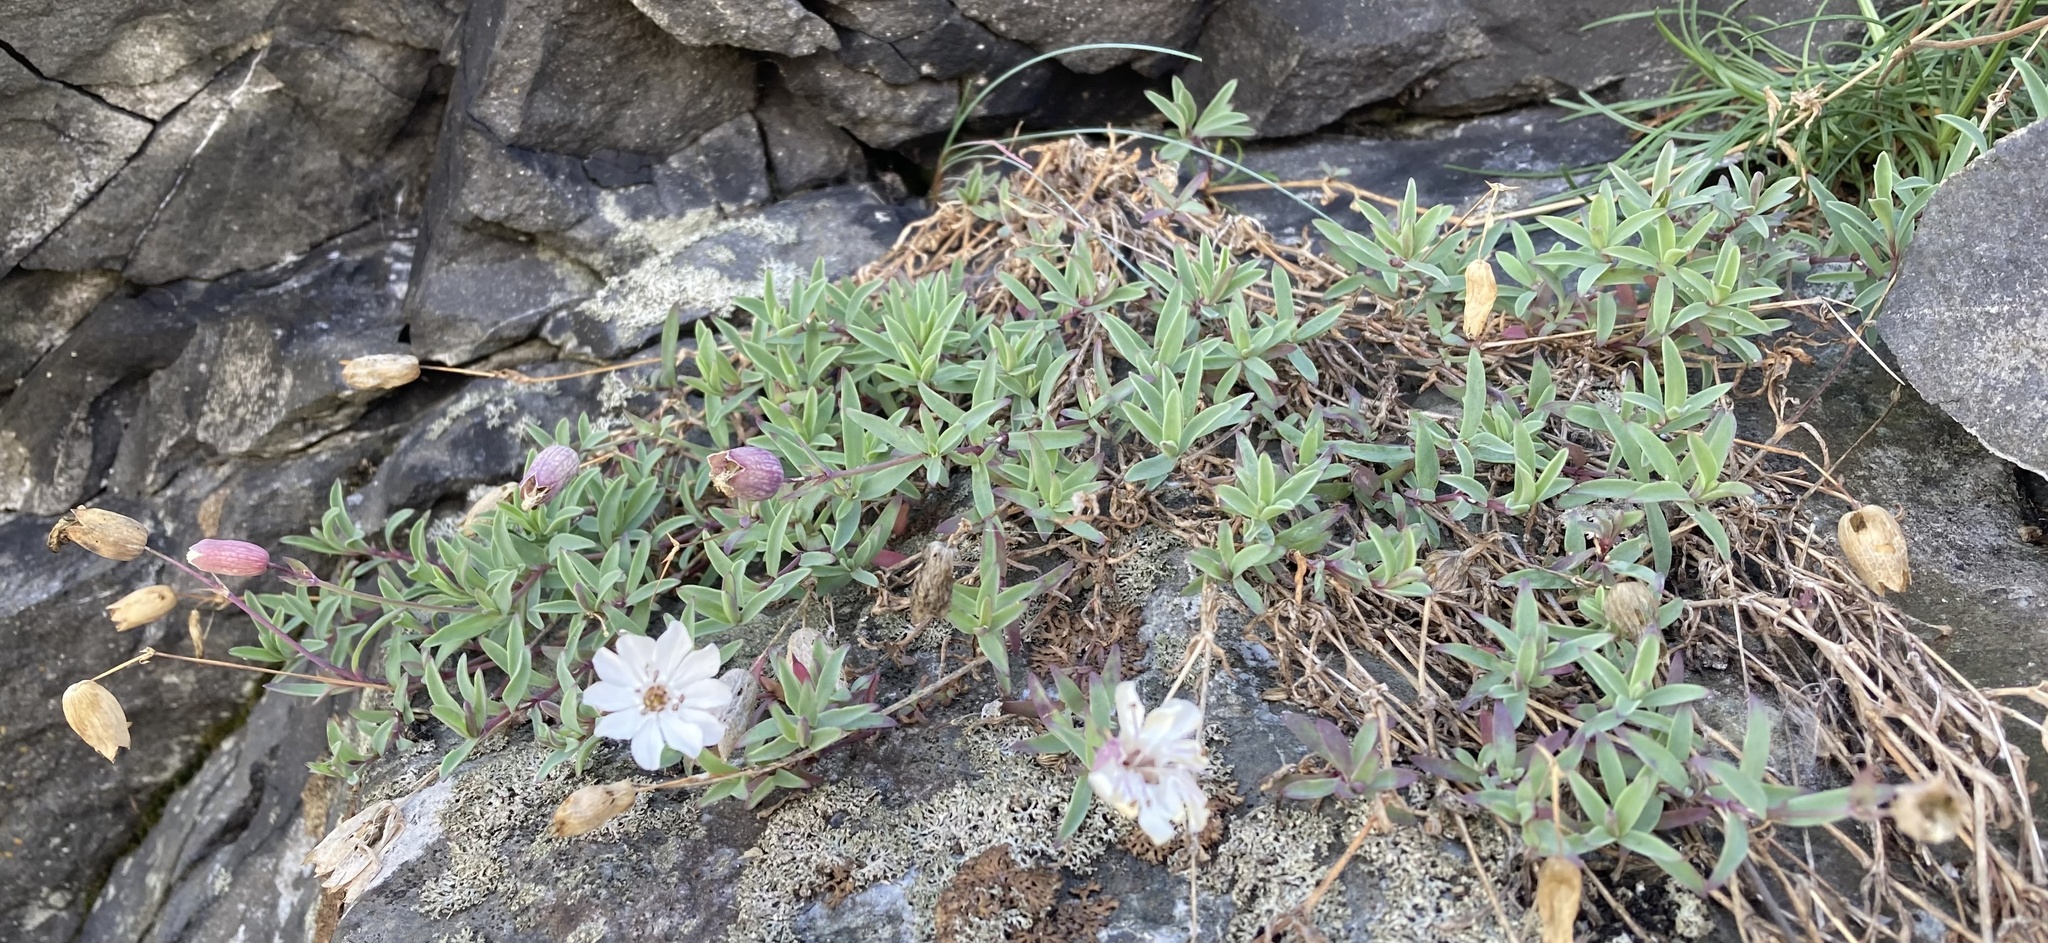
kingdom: Plantae
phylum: Tracheophyta
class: Magnoliopsida
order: Caryophyllales
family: Caryophyllaceae
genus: Silene
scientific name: Silene uniflora
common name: Sea campion
